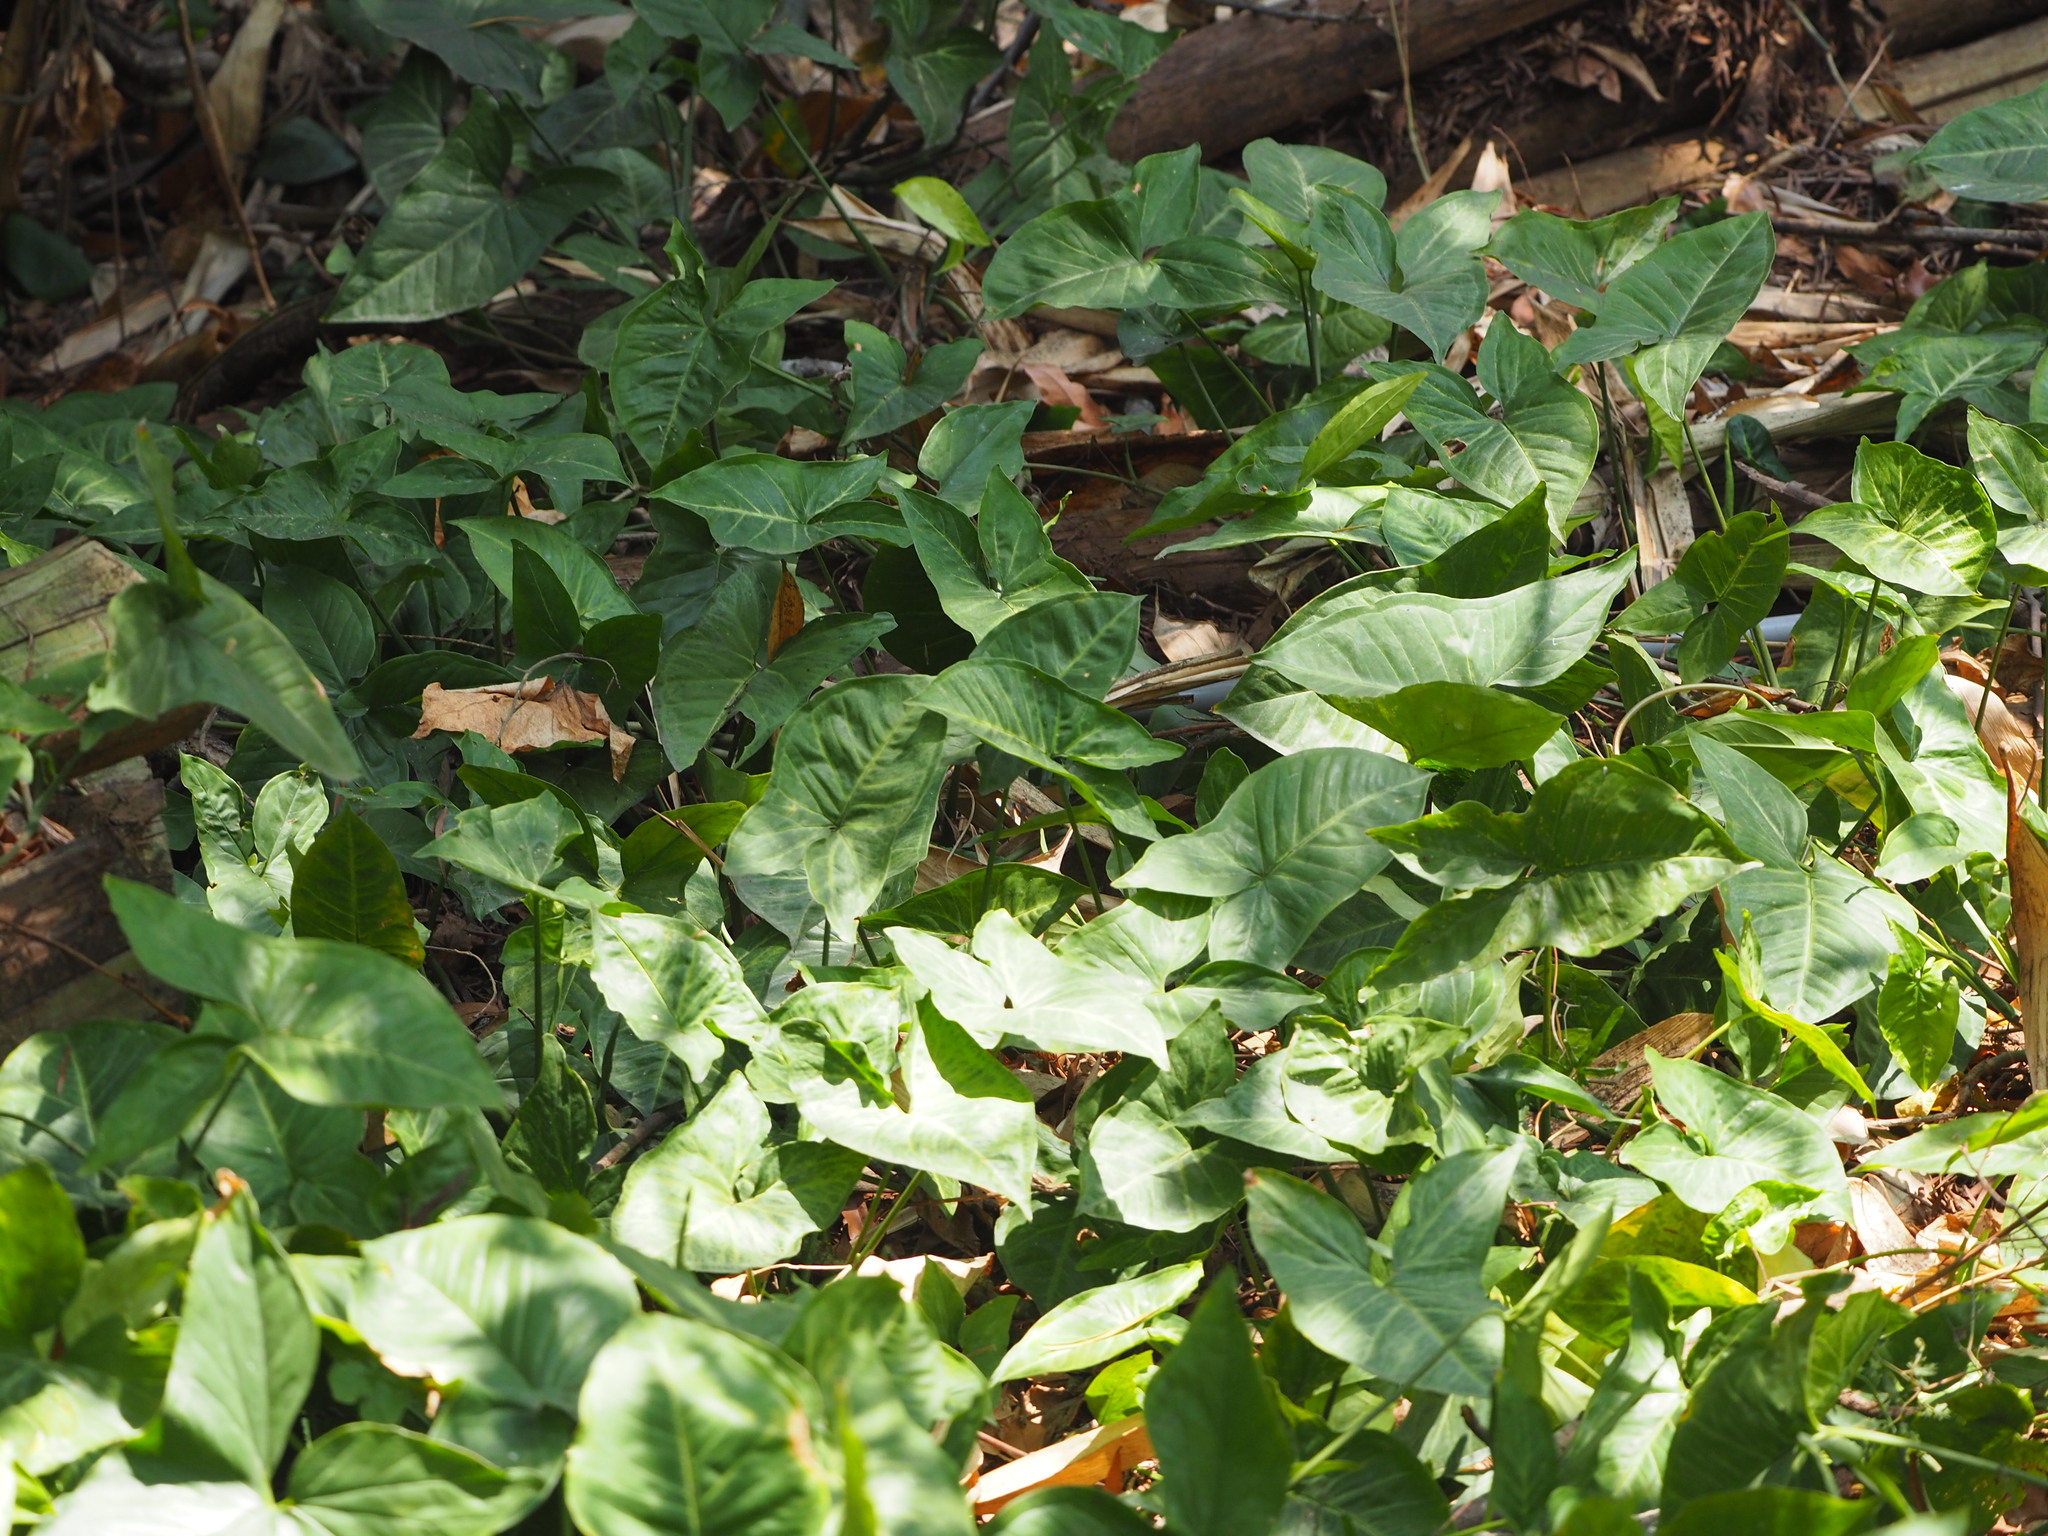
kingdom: Plantae
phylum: Tracheophyta
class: Liliopsida
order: Alismatales
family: Araceae
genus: Syngonium
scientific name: Syngonium podophyllum
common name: American evergreen
